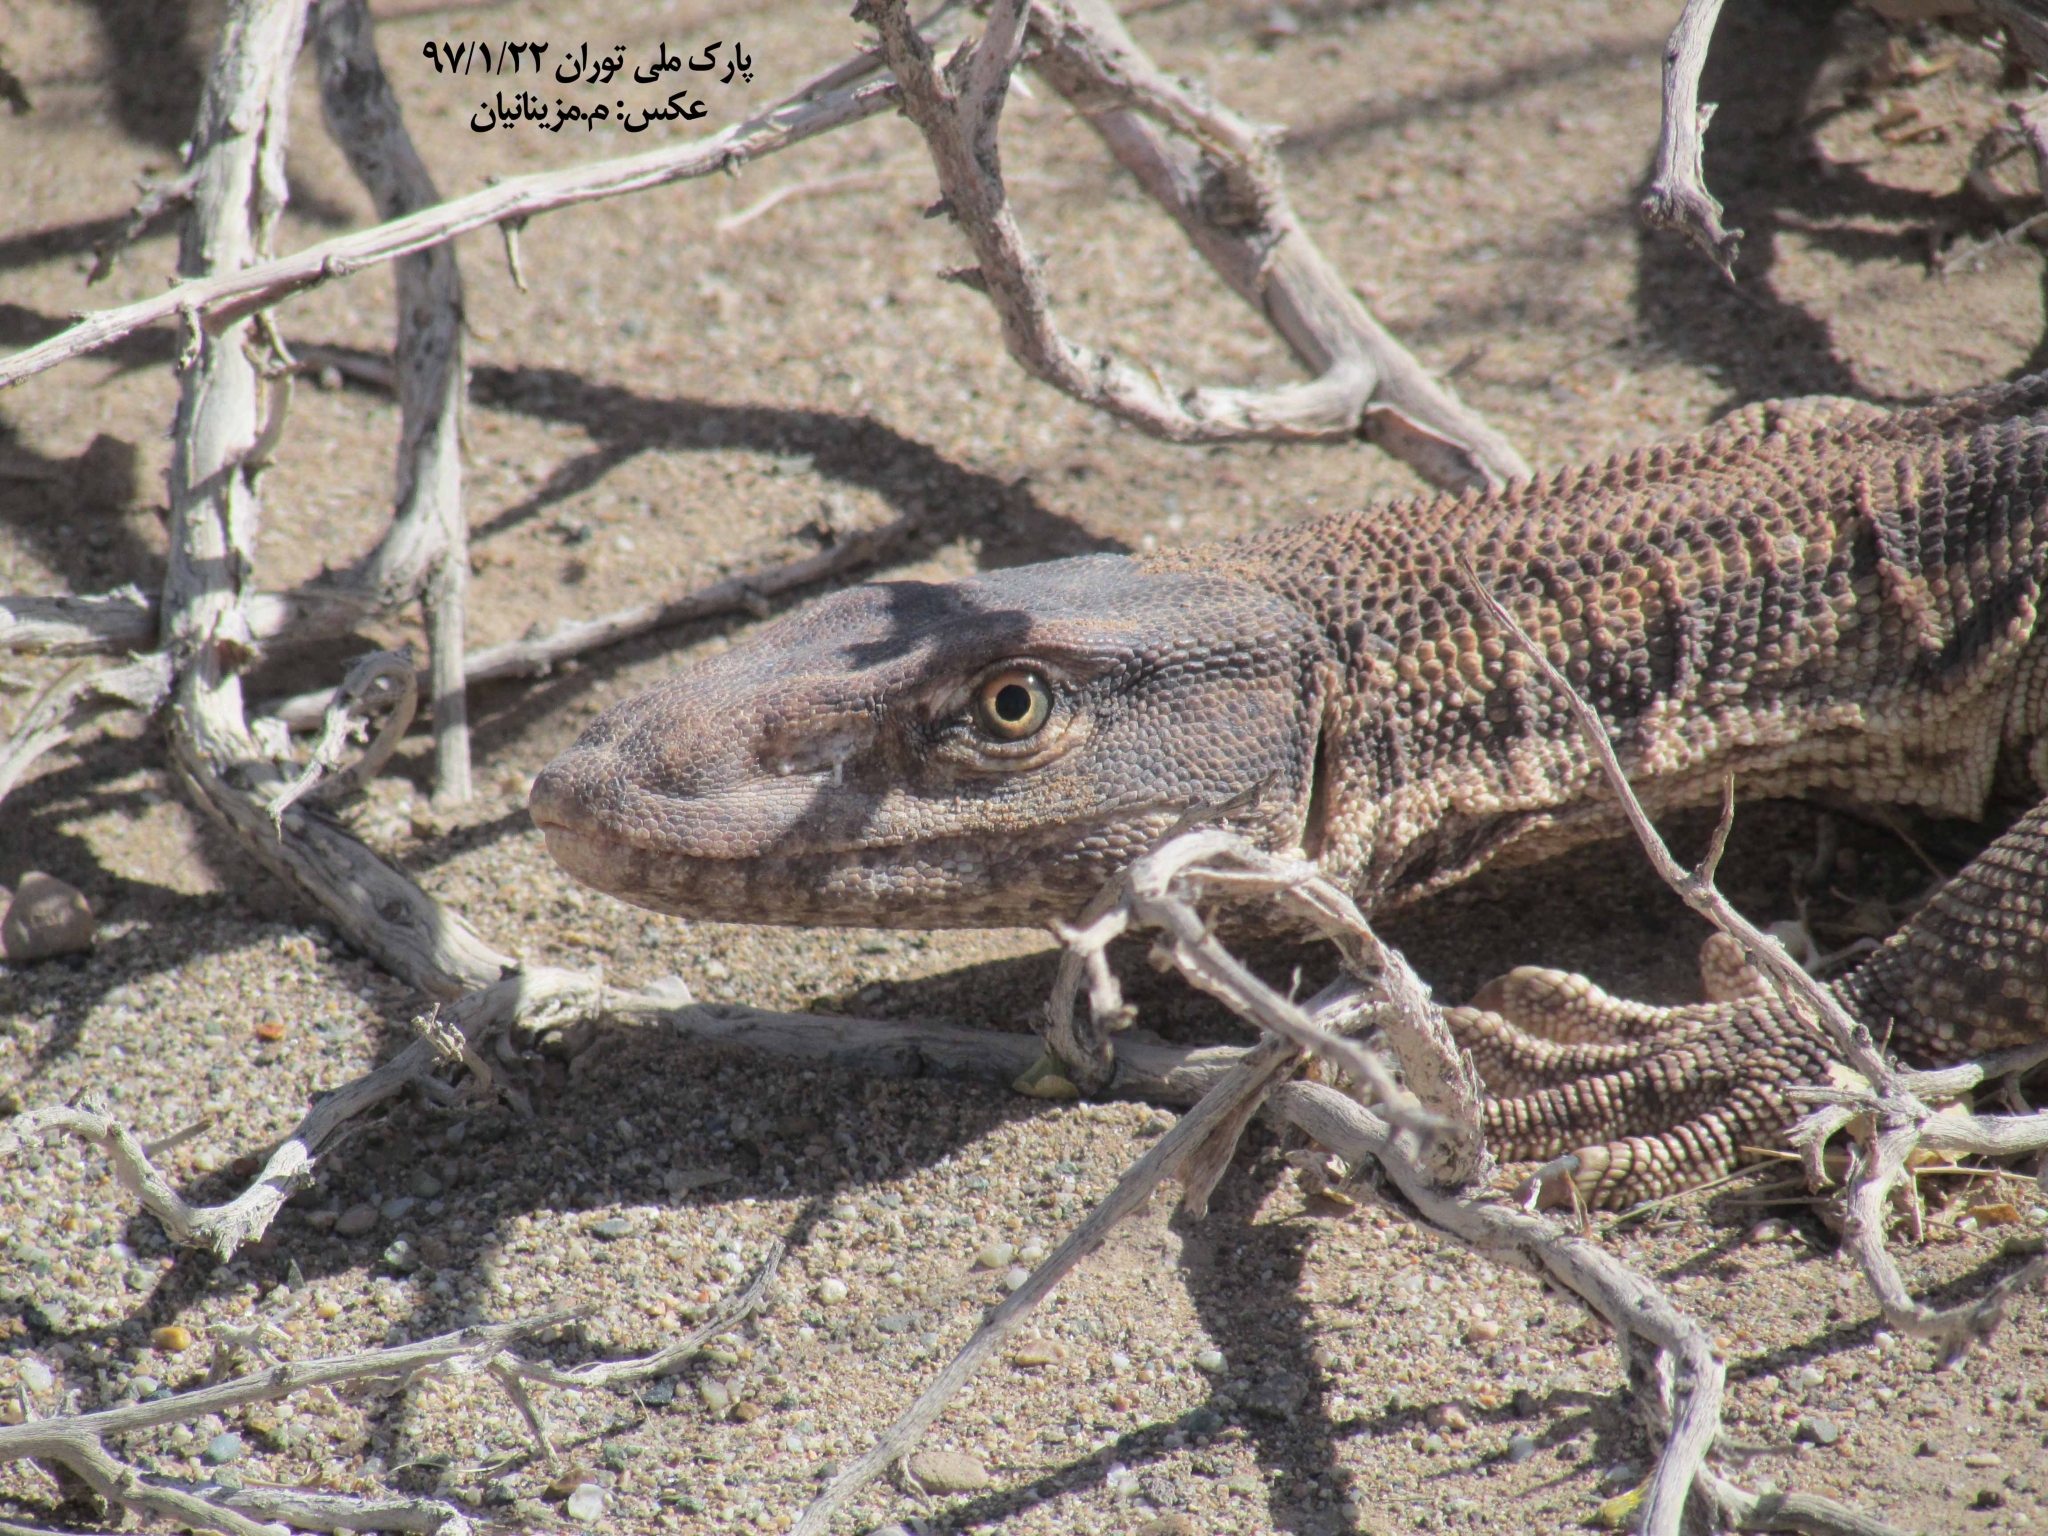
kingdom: Animalia
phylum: Chordata
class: Squamata
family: Varanidae
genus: Varanus
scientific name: Varanus
